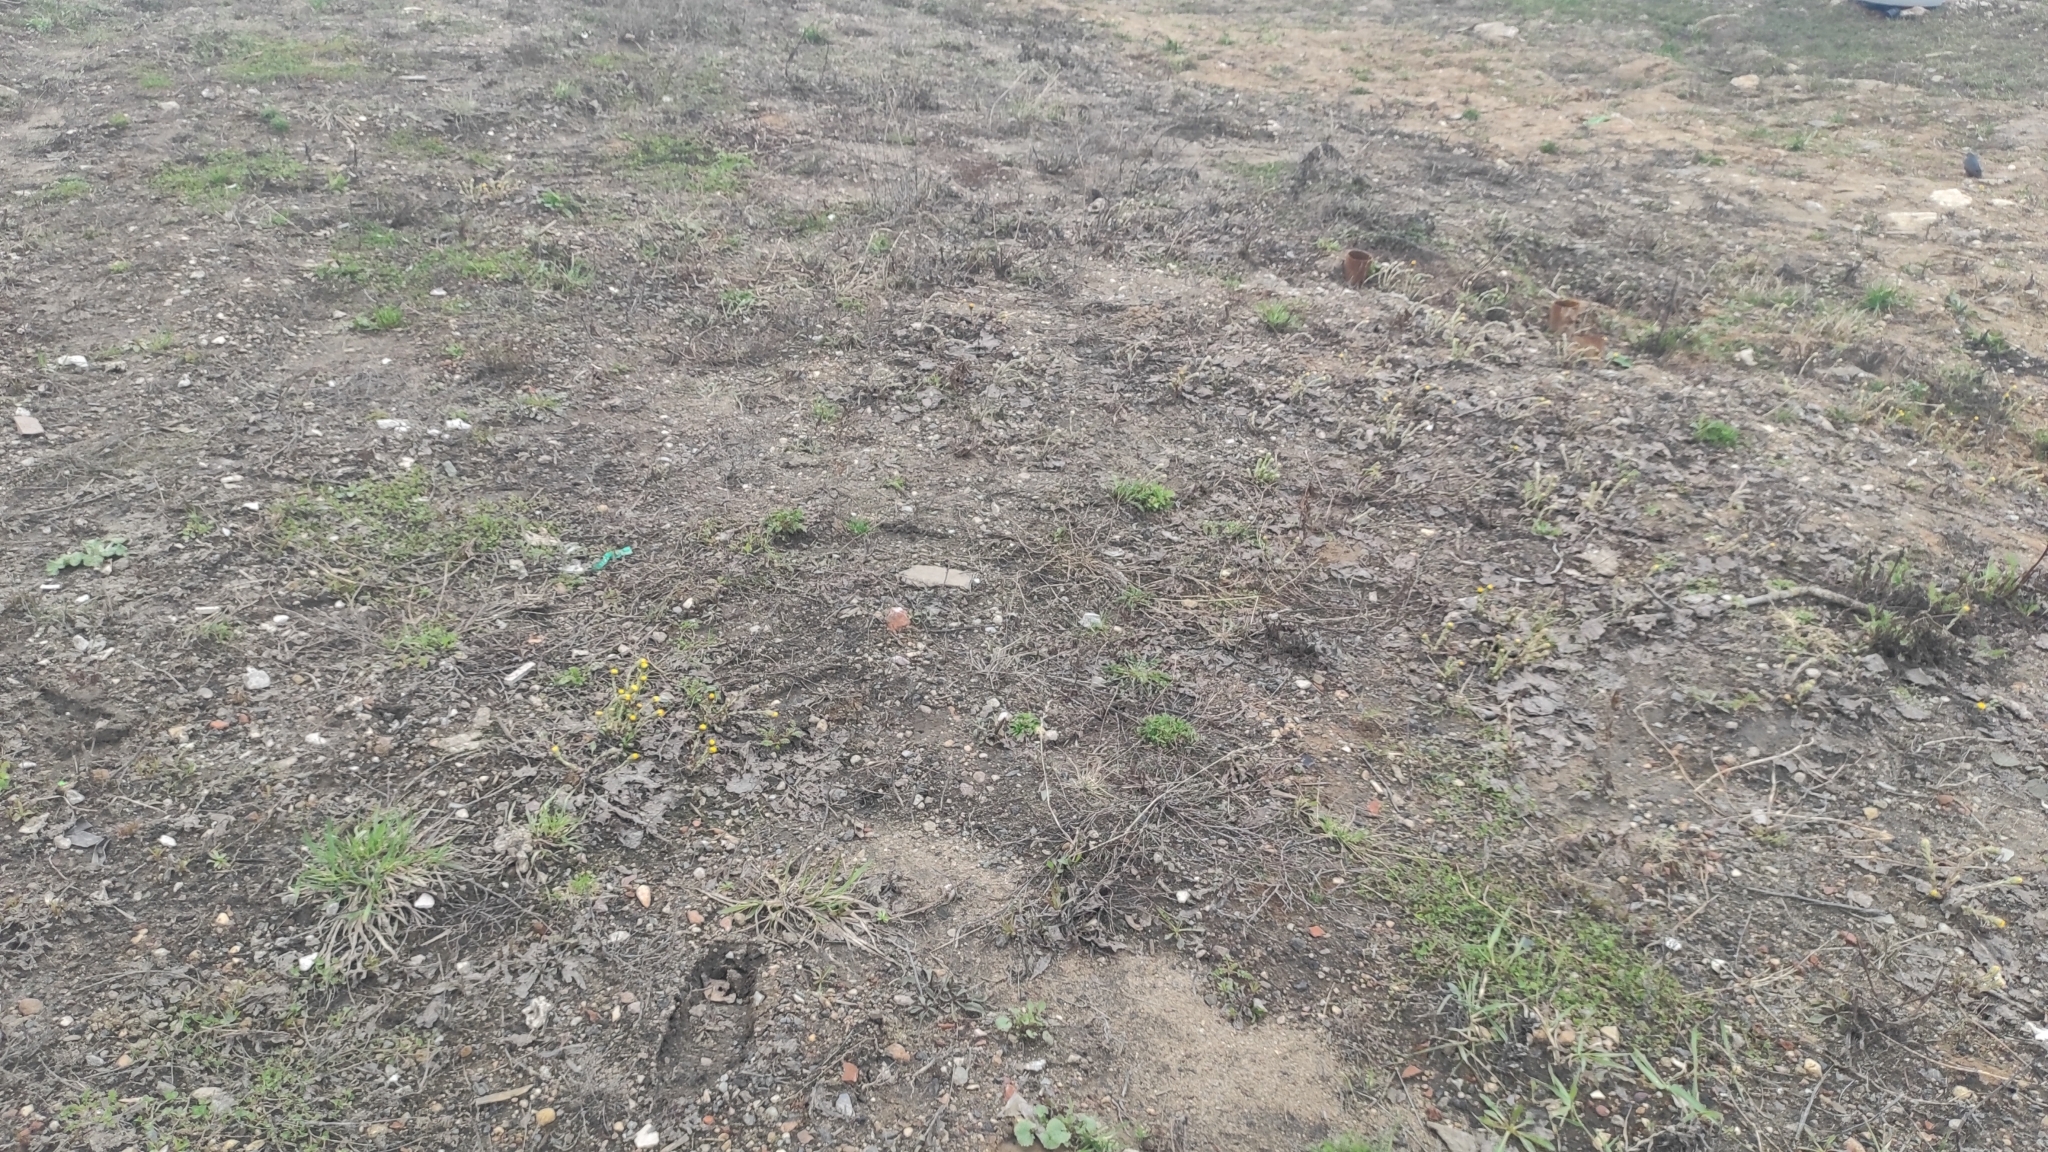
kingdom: Plantae
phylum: Tracheophyta
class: Magnoliopsida
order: Asterales
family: Asteraceae
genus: Tussilago
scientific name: Tussilago farfara
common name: Coltsfoot
